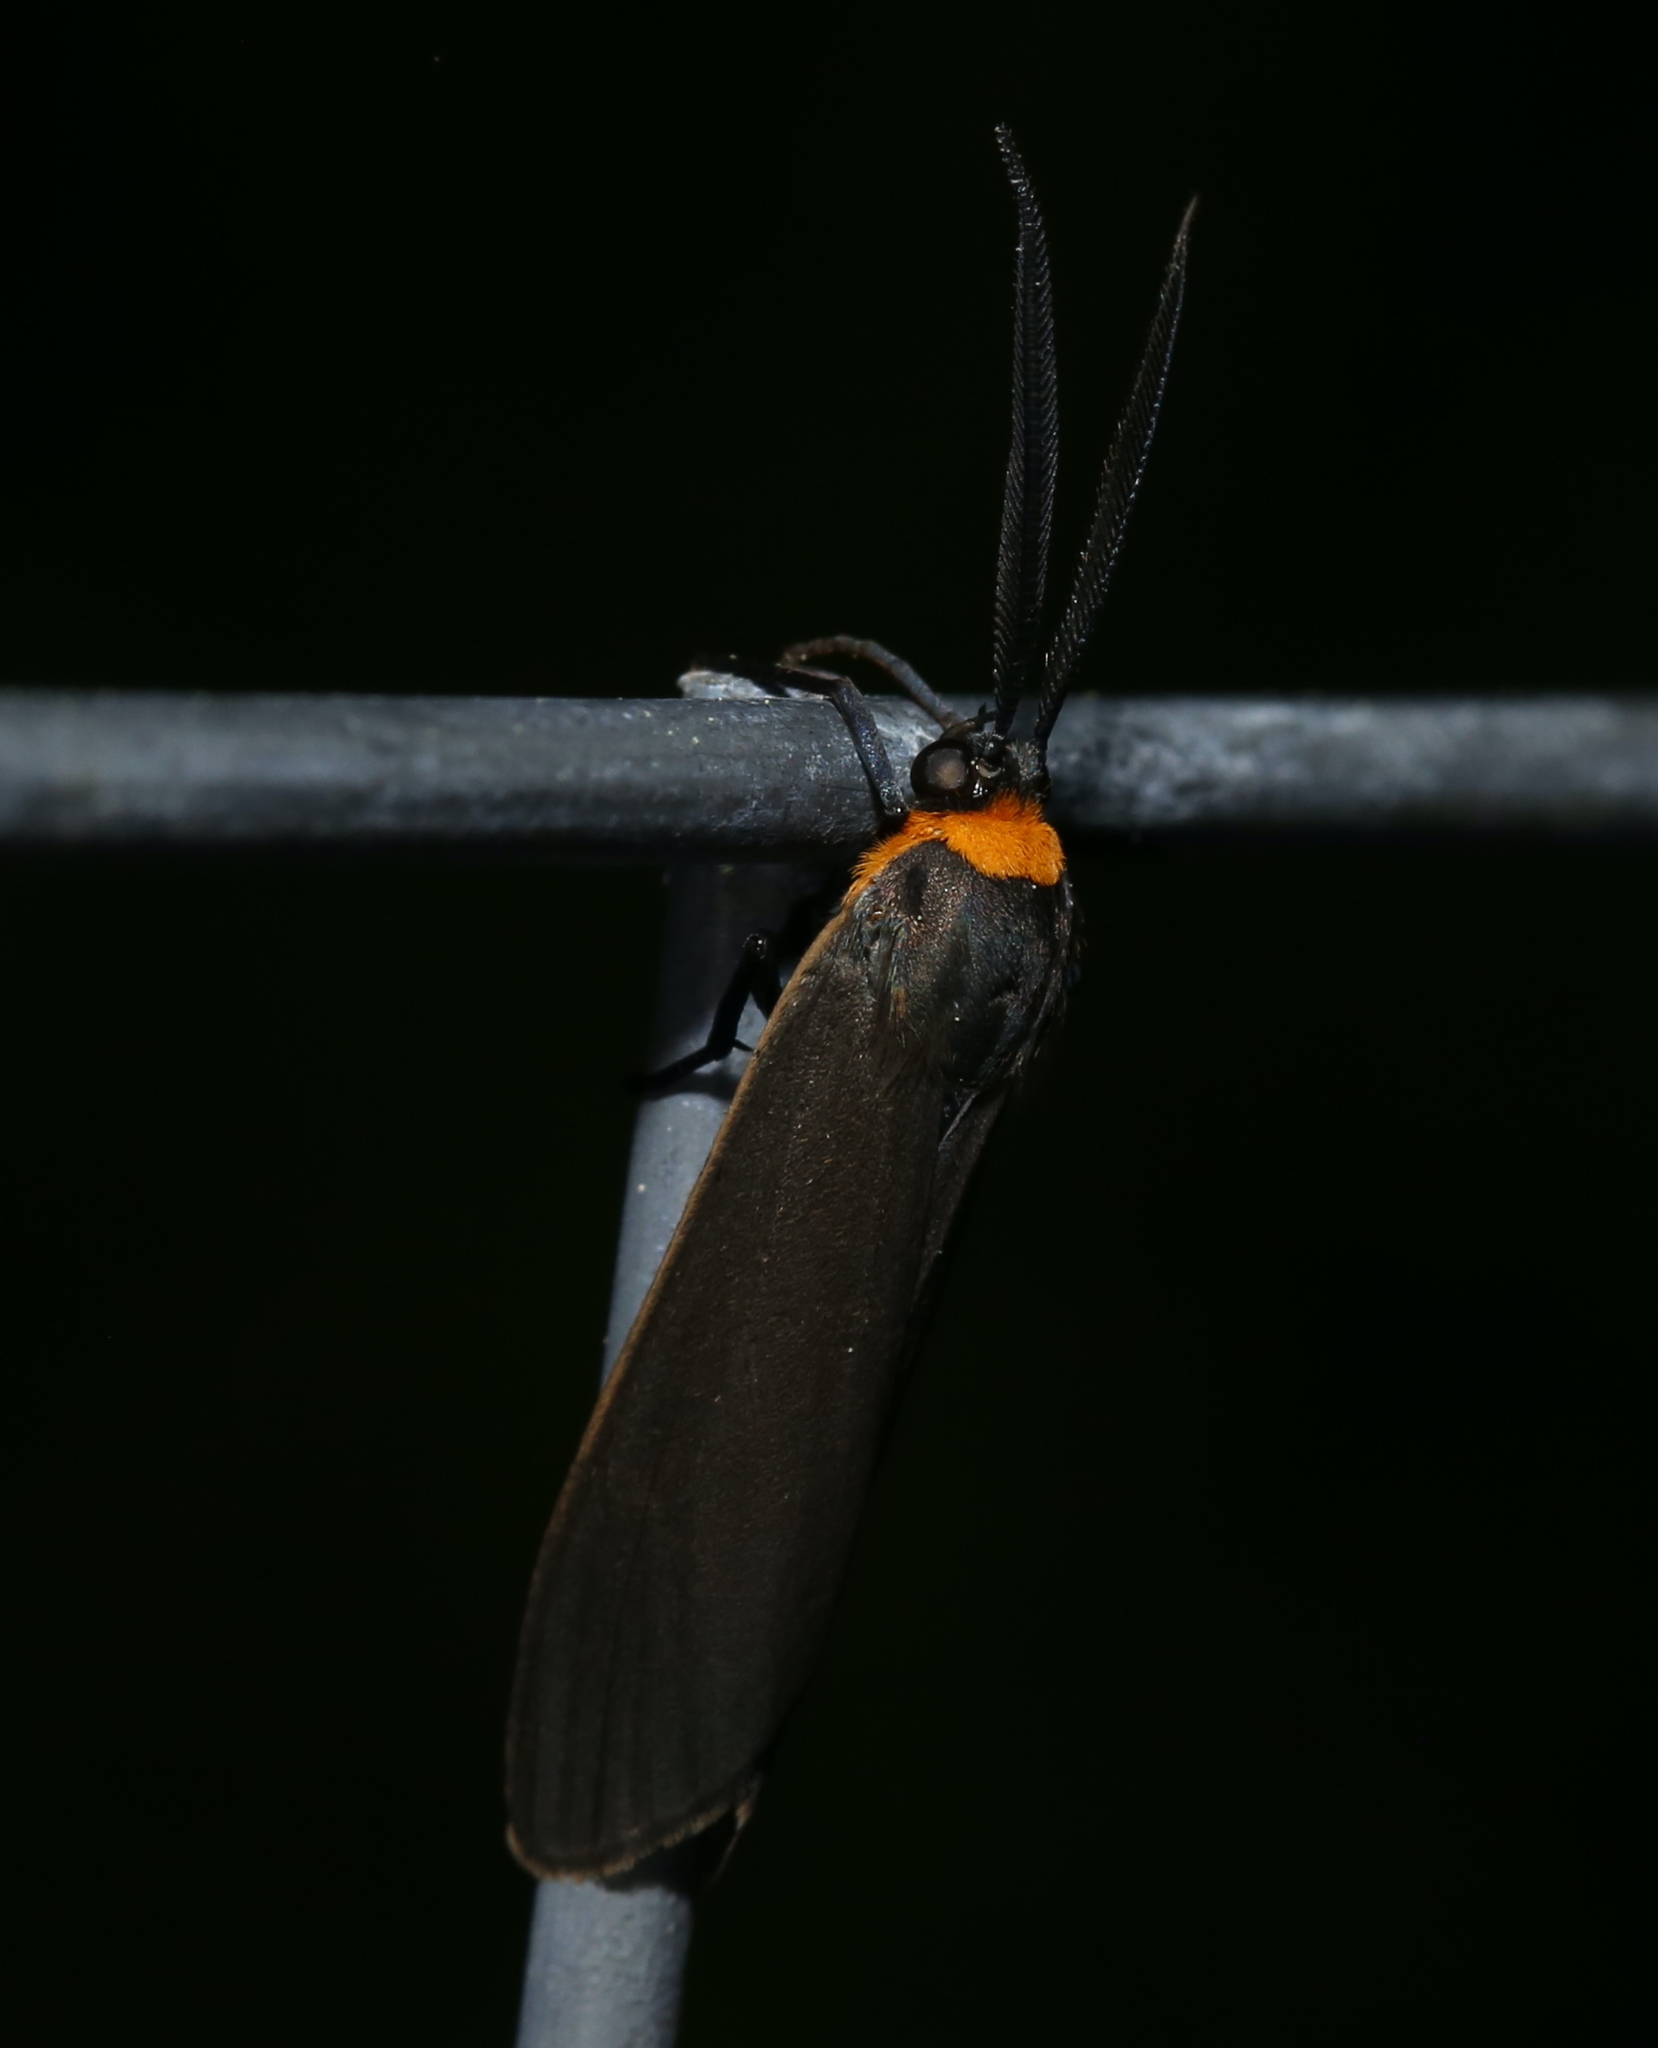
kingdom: Animalia
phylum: Arthropoda
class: Insecta
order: Lepidoptera
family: Erebidae
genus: Cisseps
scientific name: Cisseps fulvicollis
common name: Yellow-collared scape moth
